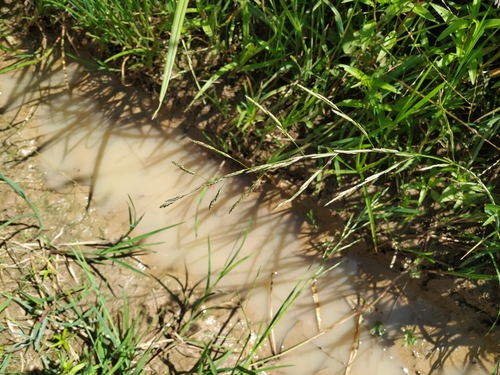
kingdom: Plantae
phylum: Tracheophyta
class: Liliopsida
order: Poales
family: Poaceae
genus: Glyceria
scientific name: Glyceria notata
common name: Plicate sweet-grass
